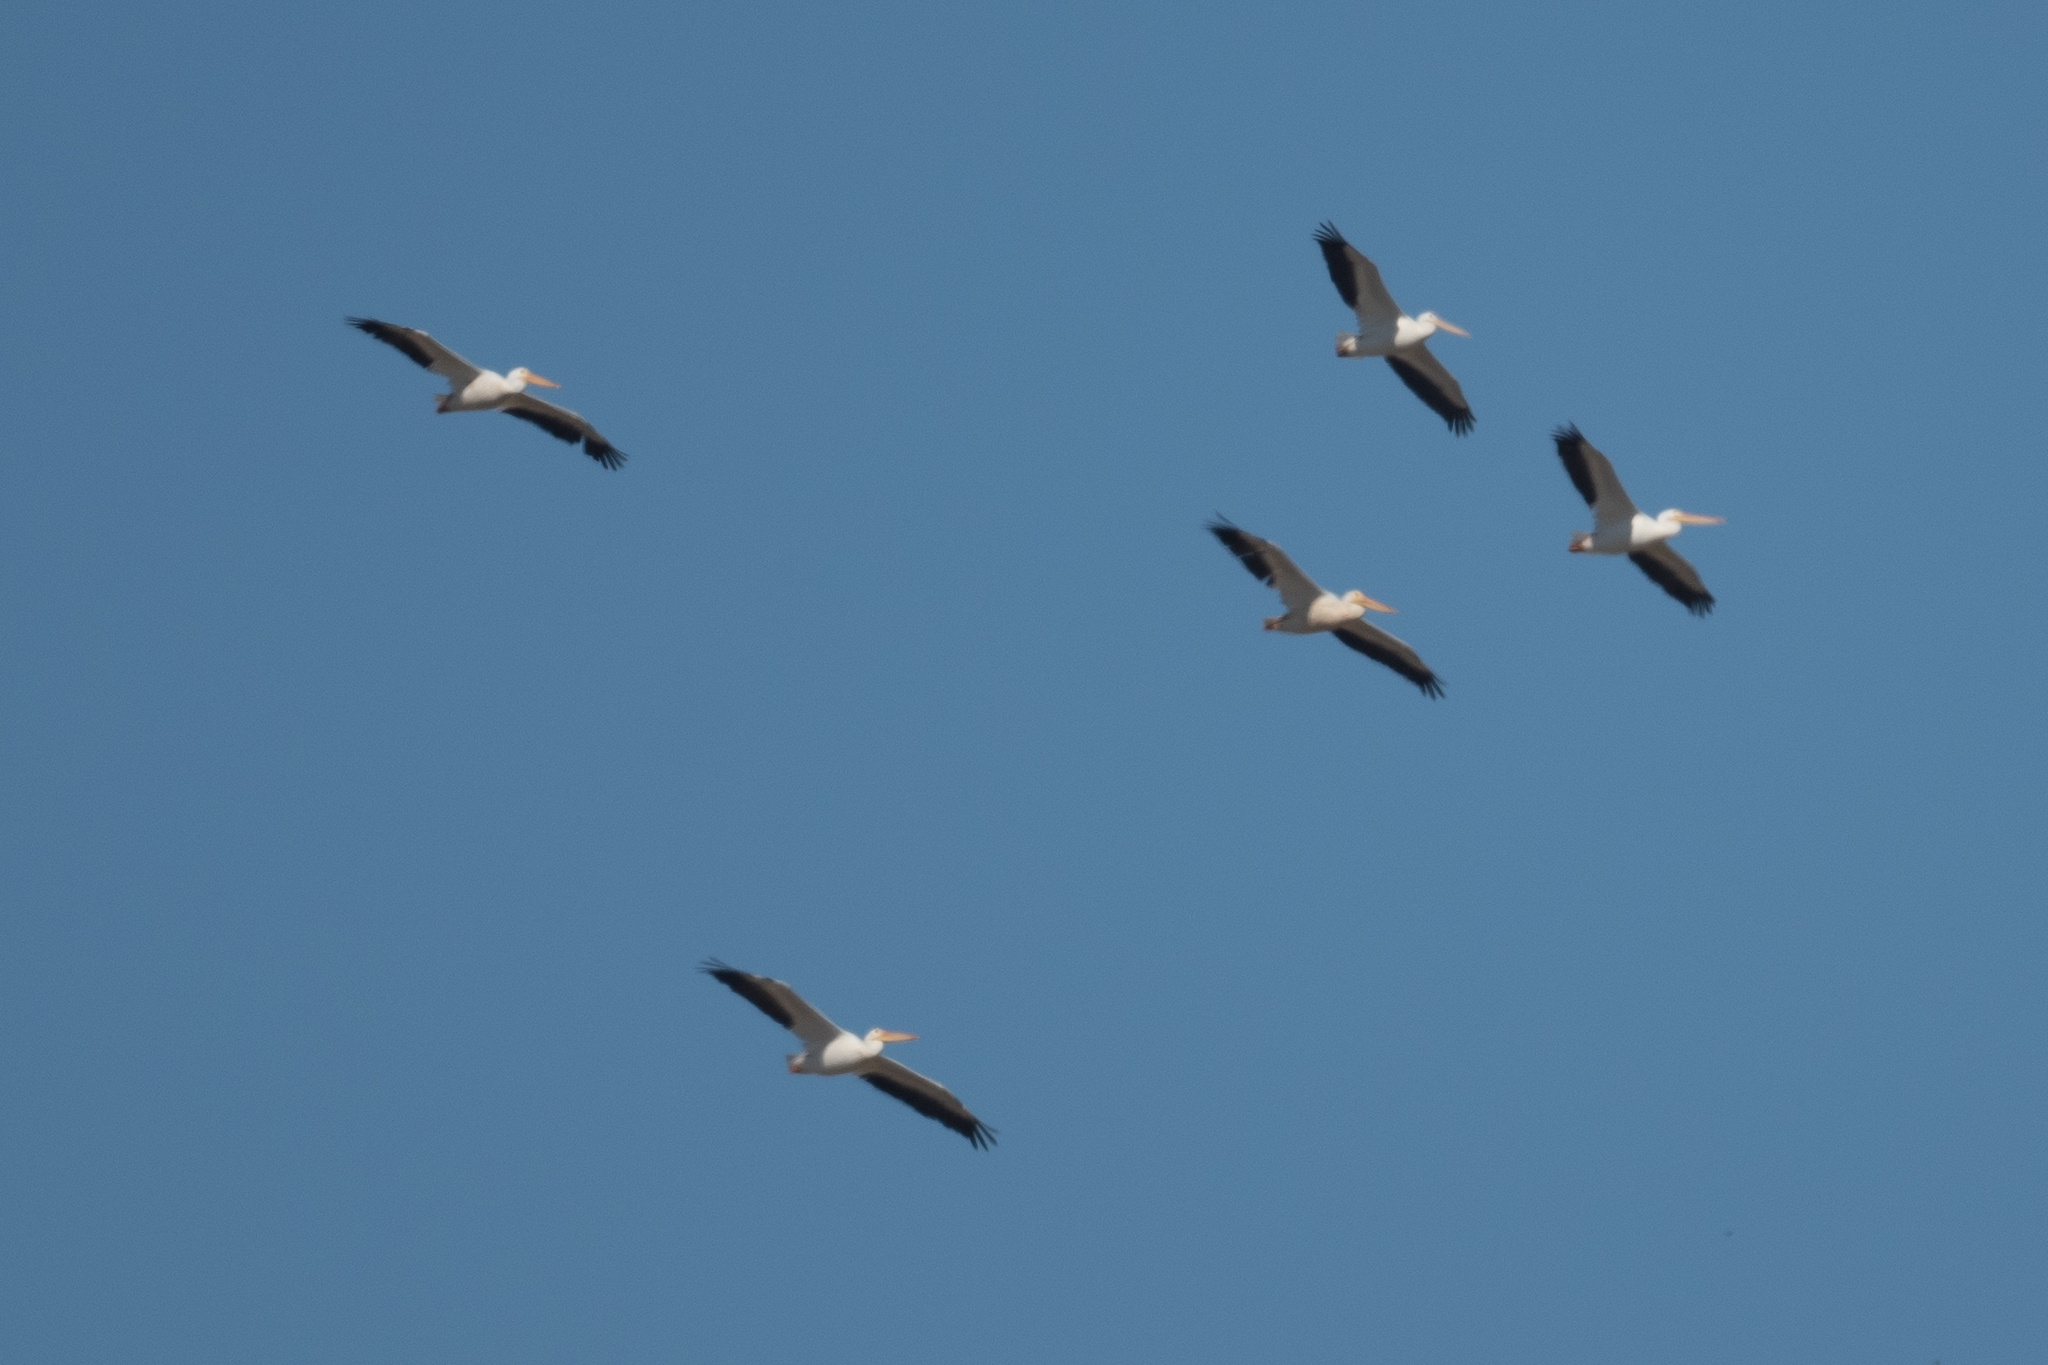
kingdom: Animalia
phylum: Chordata
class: Aves
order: Pelecaniformes
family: Pelecanidae
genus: Pelecanus
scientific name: Pelecanus erythrorhynchos
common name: American white pelican
